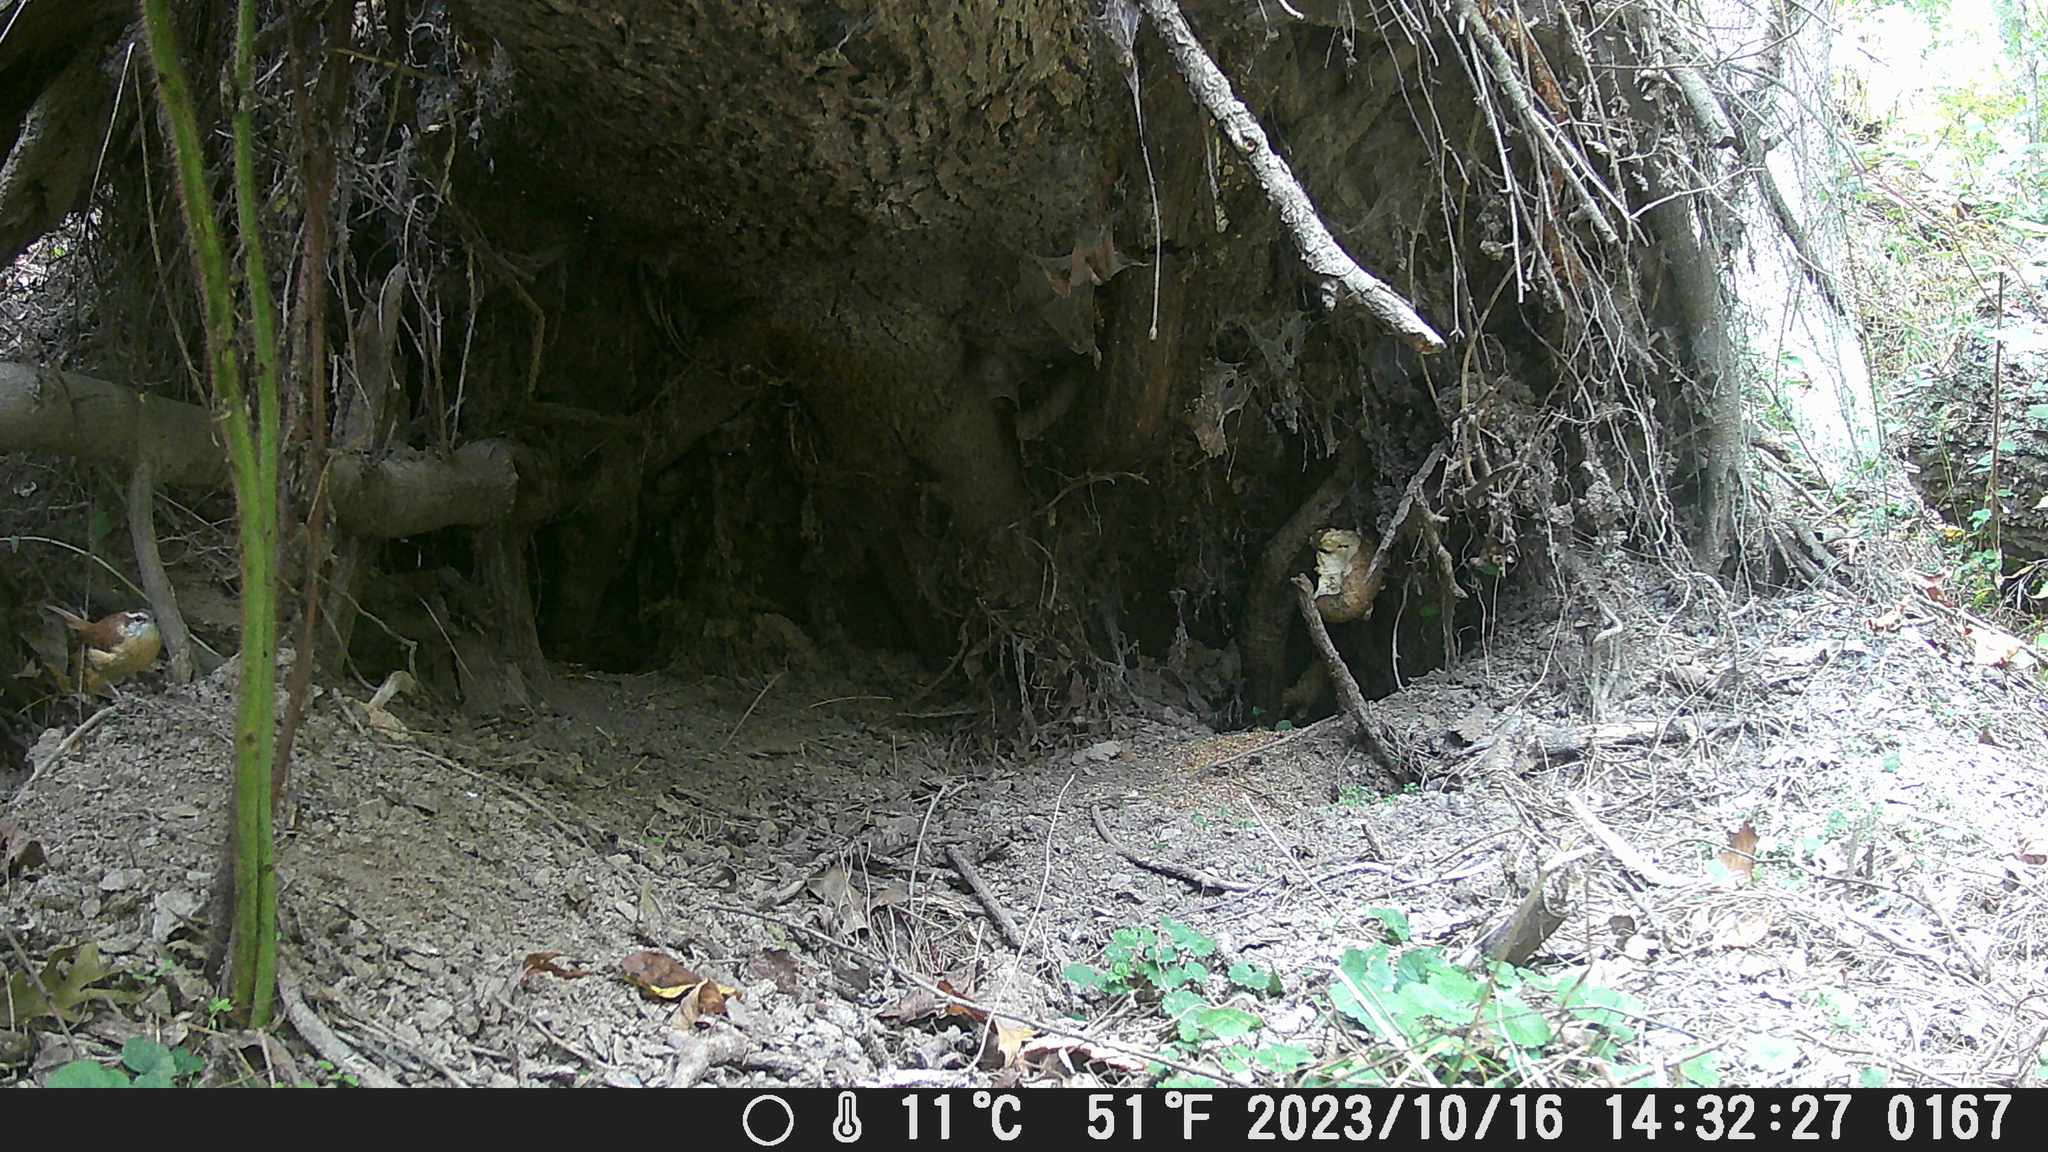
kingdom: Animalia
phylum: Chordata
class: Aves
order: Passeriformes
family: Troglodytidae
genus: Thryothorus
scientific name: Thryothorus ludovicianus
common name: Carolina wren
